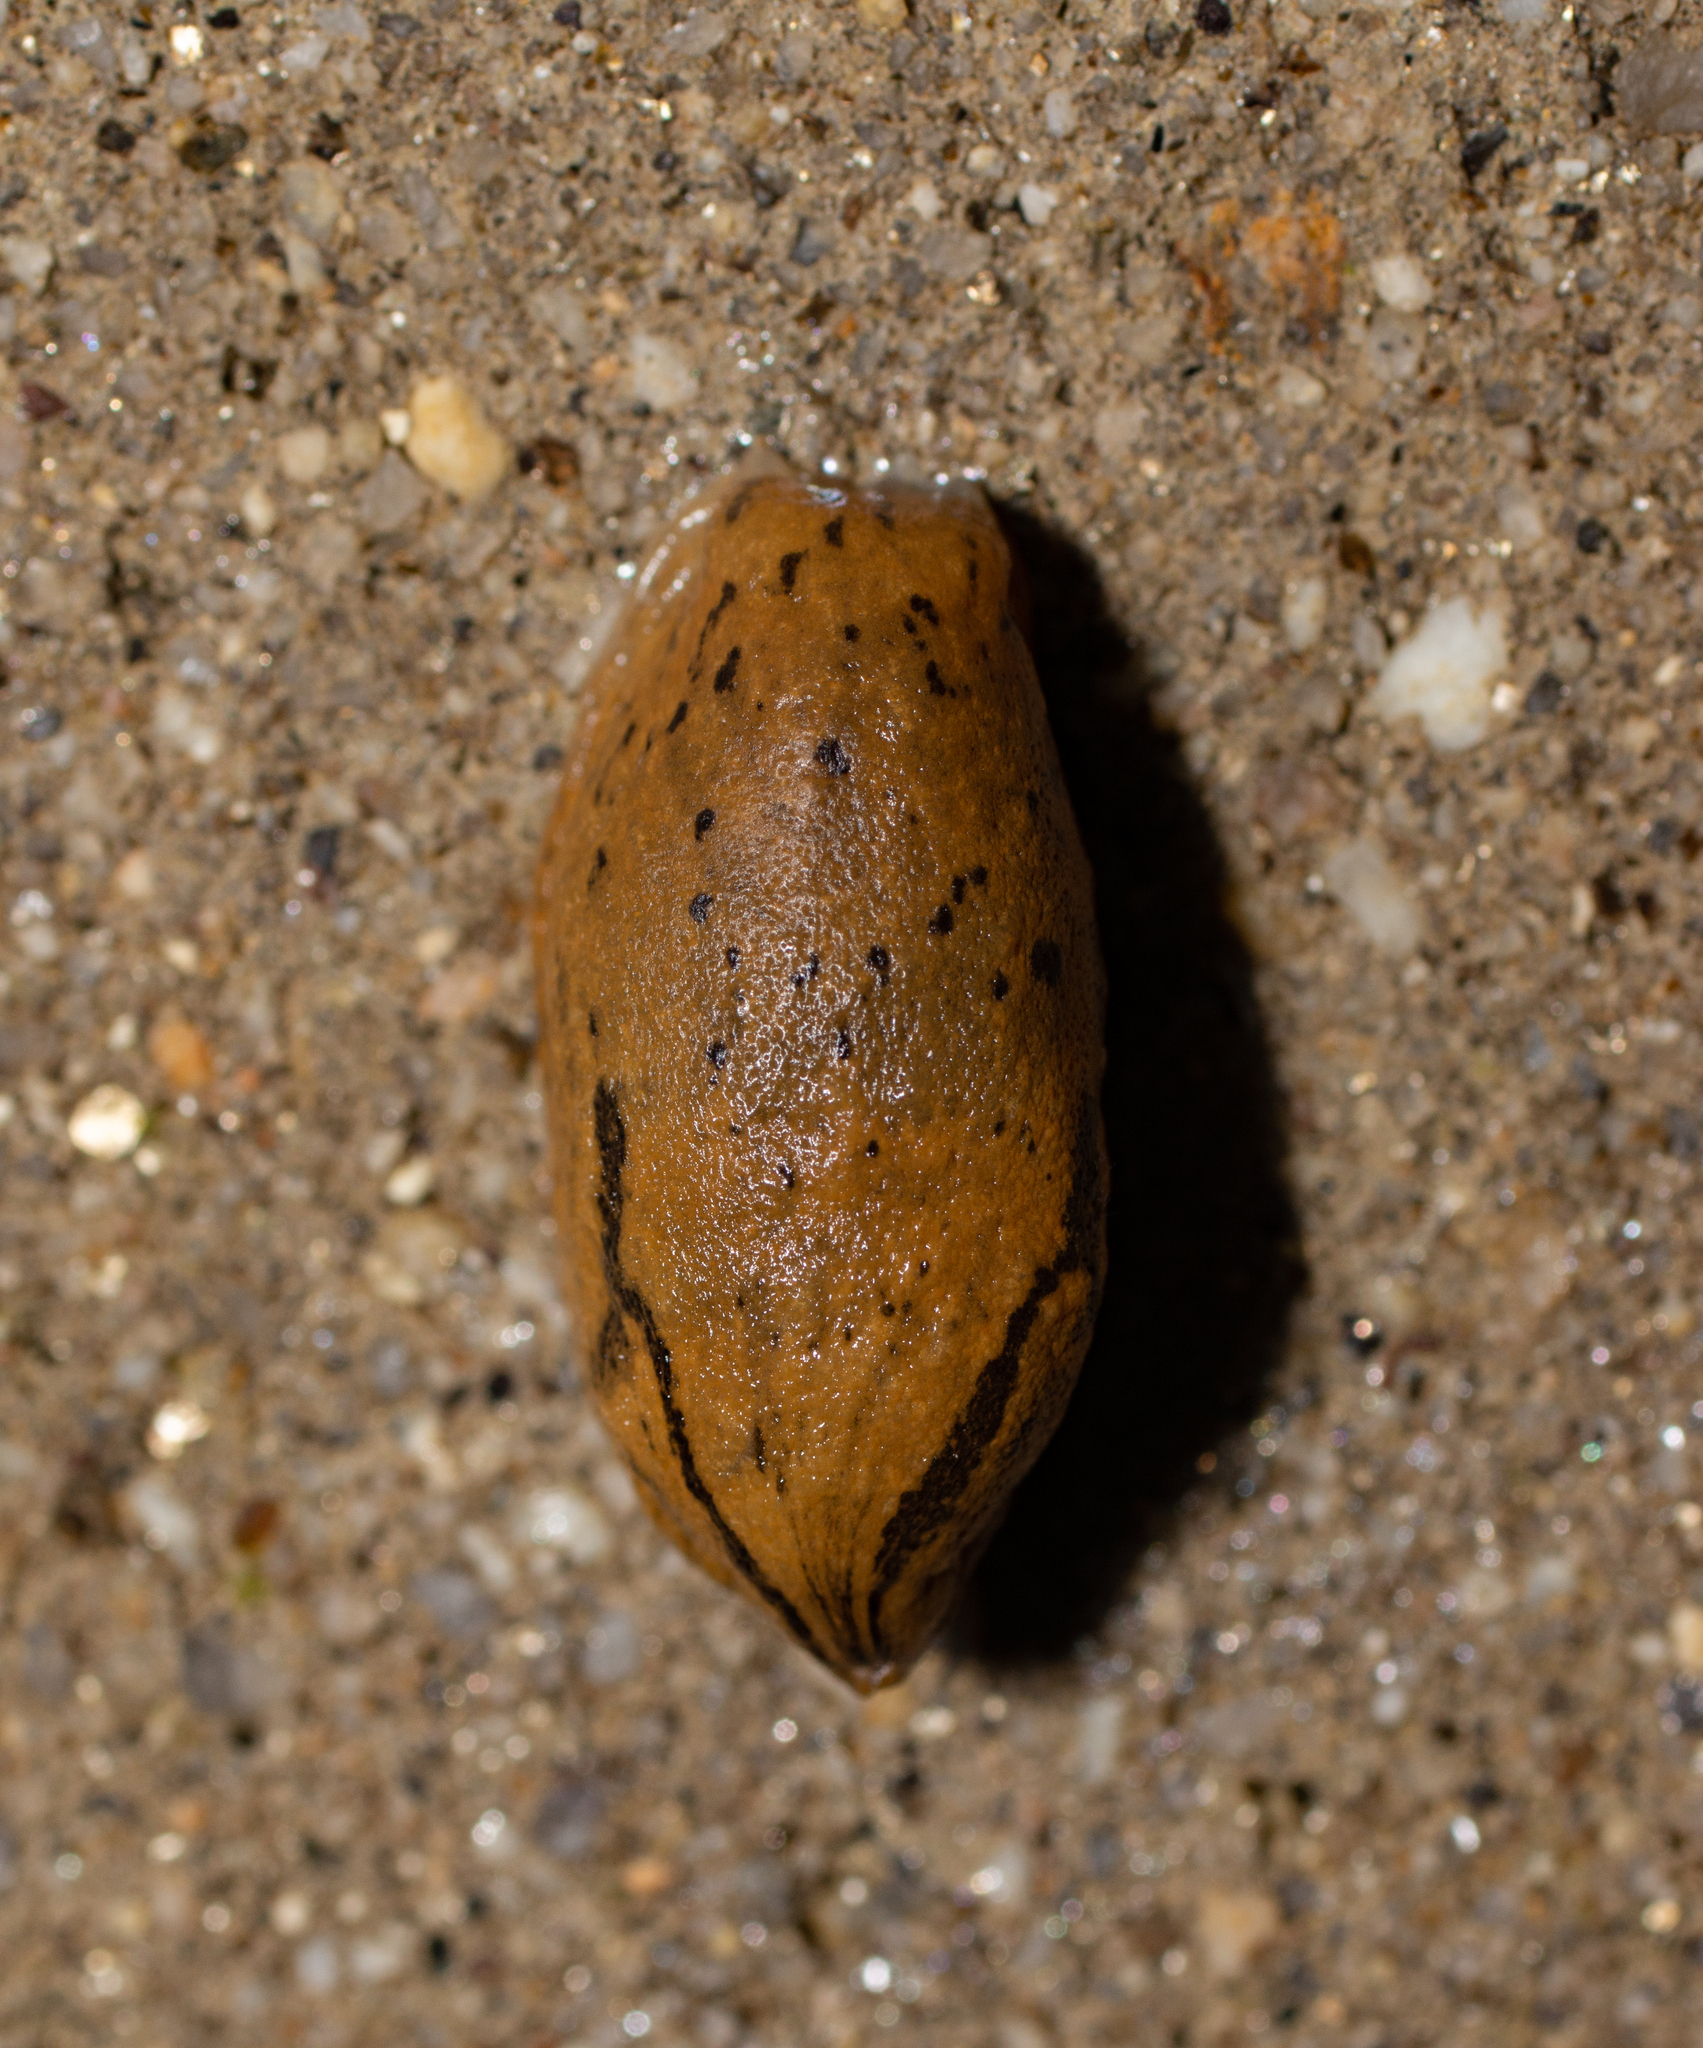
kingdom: Animalia
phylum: Mollusca
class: Gastropoda
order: Stylommatophora
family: Parmacellidae
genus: Drusia
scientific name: Drusia valenciennii
